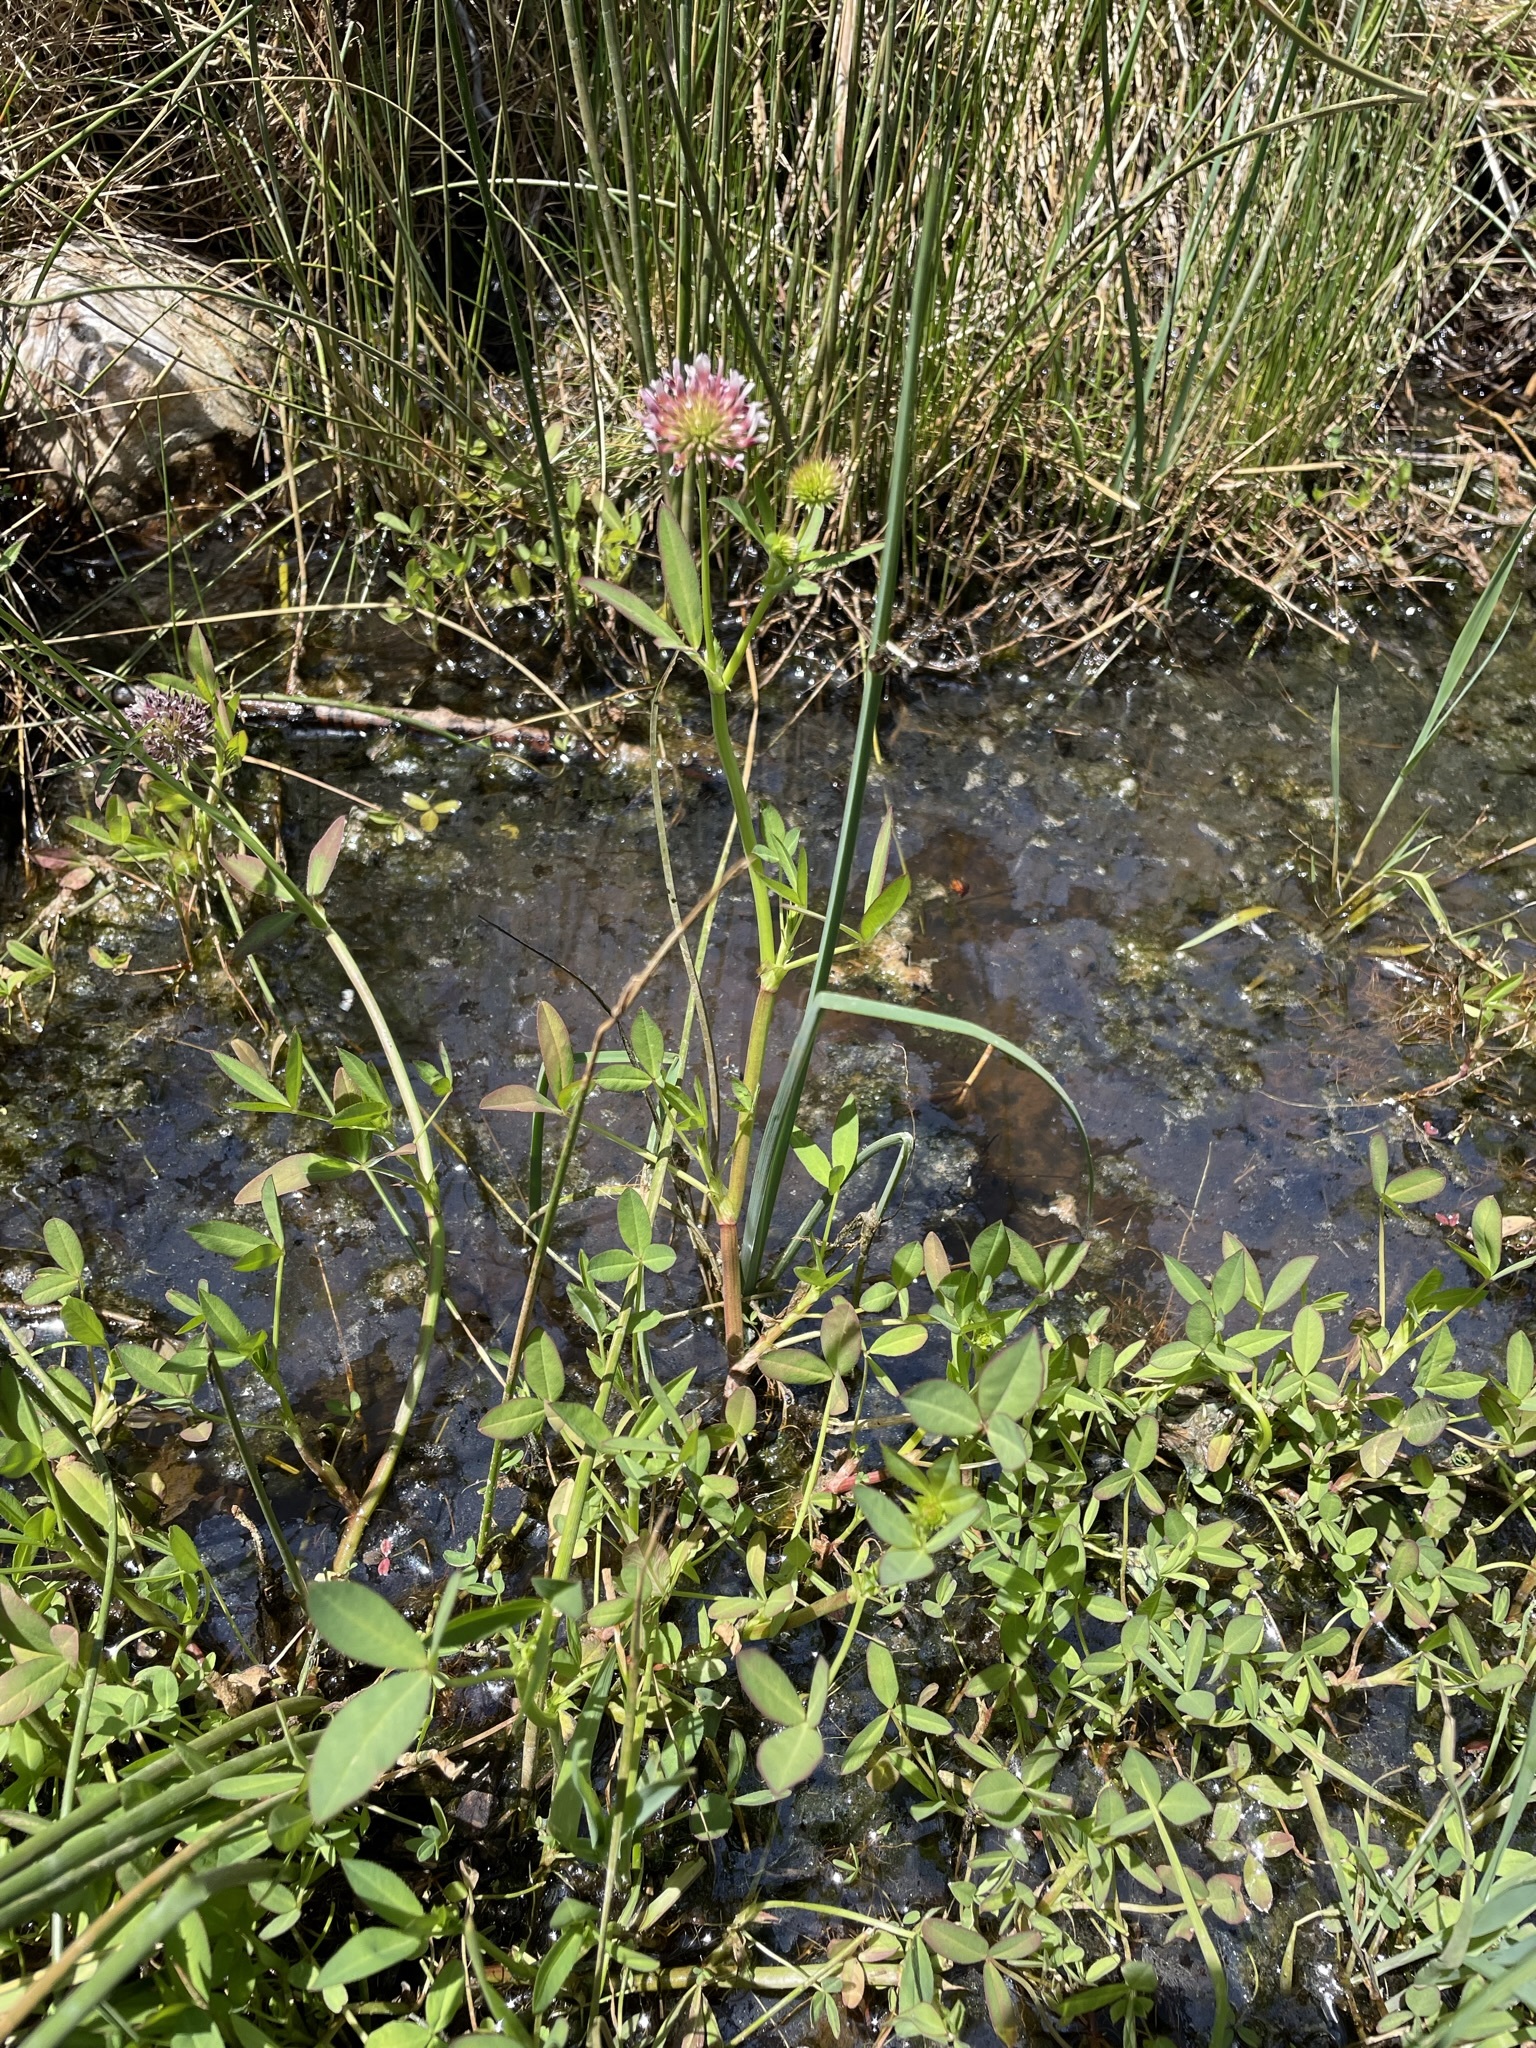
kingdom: Plantae
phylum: Tracheophyta
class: Magnoliopsida
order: Fabales
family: Fabaceae
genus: Trifolium
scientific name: Trifolium wormskioldii
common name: Springbank clover
